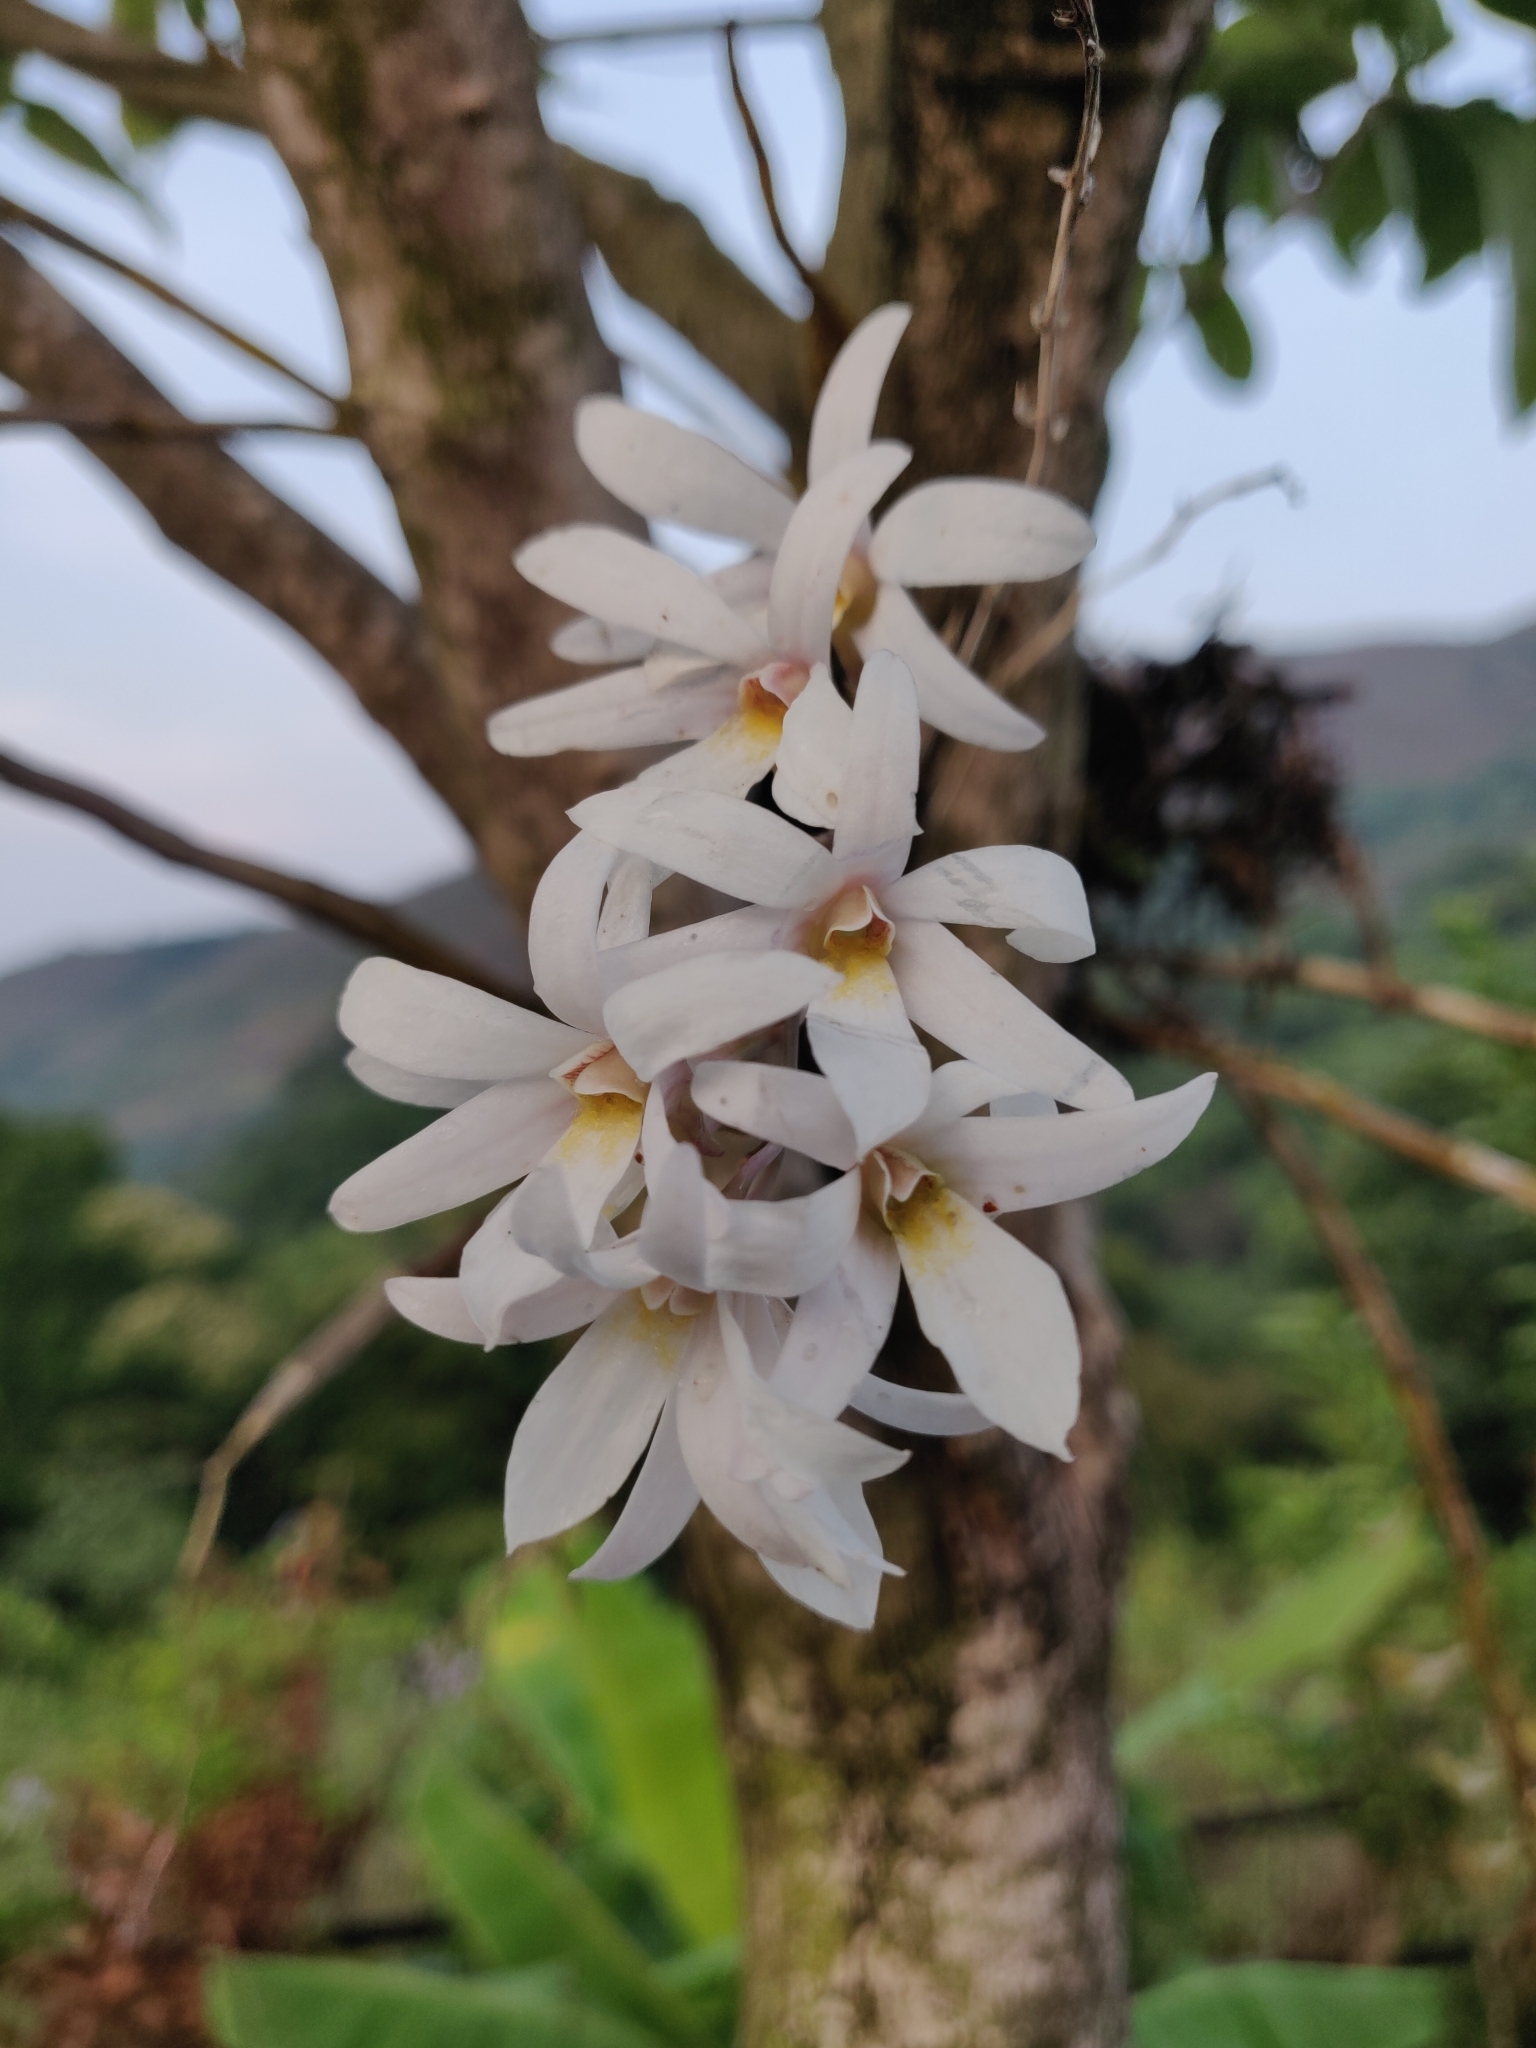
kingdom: Plantae
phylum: Tracheophyta
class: Liliopsida
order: Asparagales
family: Orchidaceae
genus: Dendrobium
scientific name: Dendrobium barbatulum
